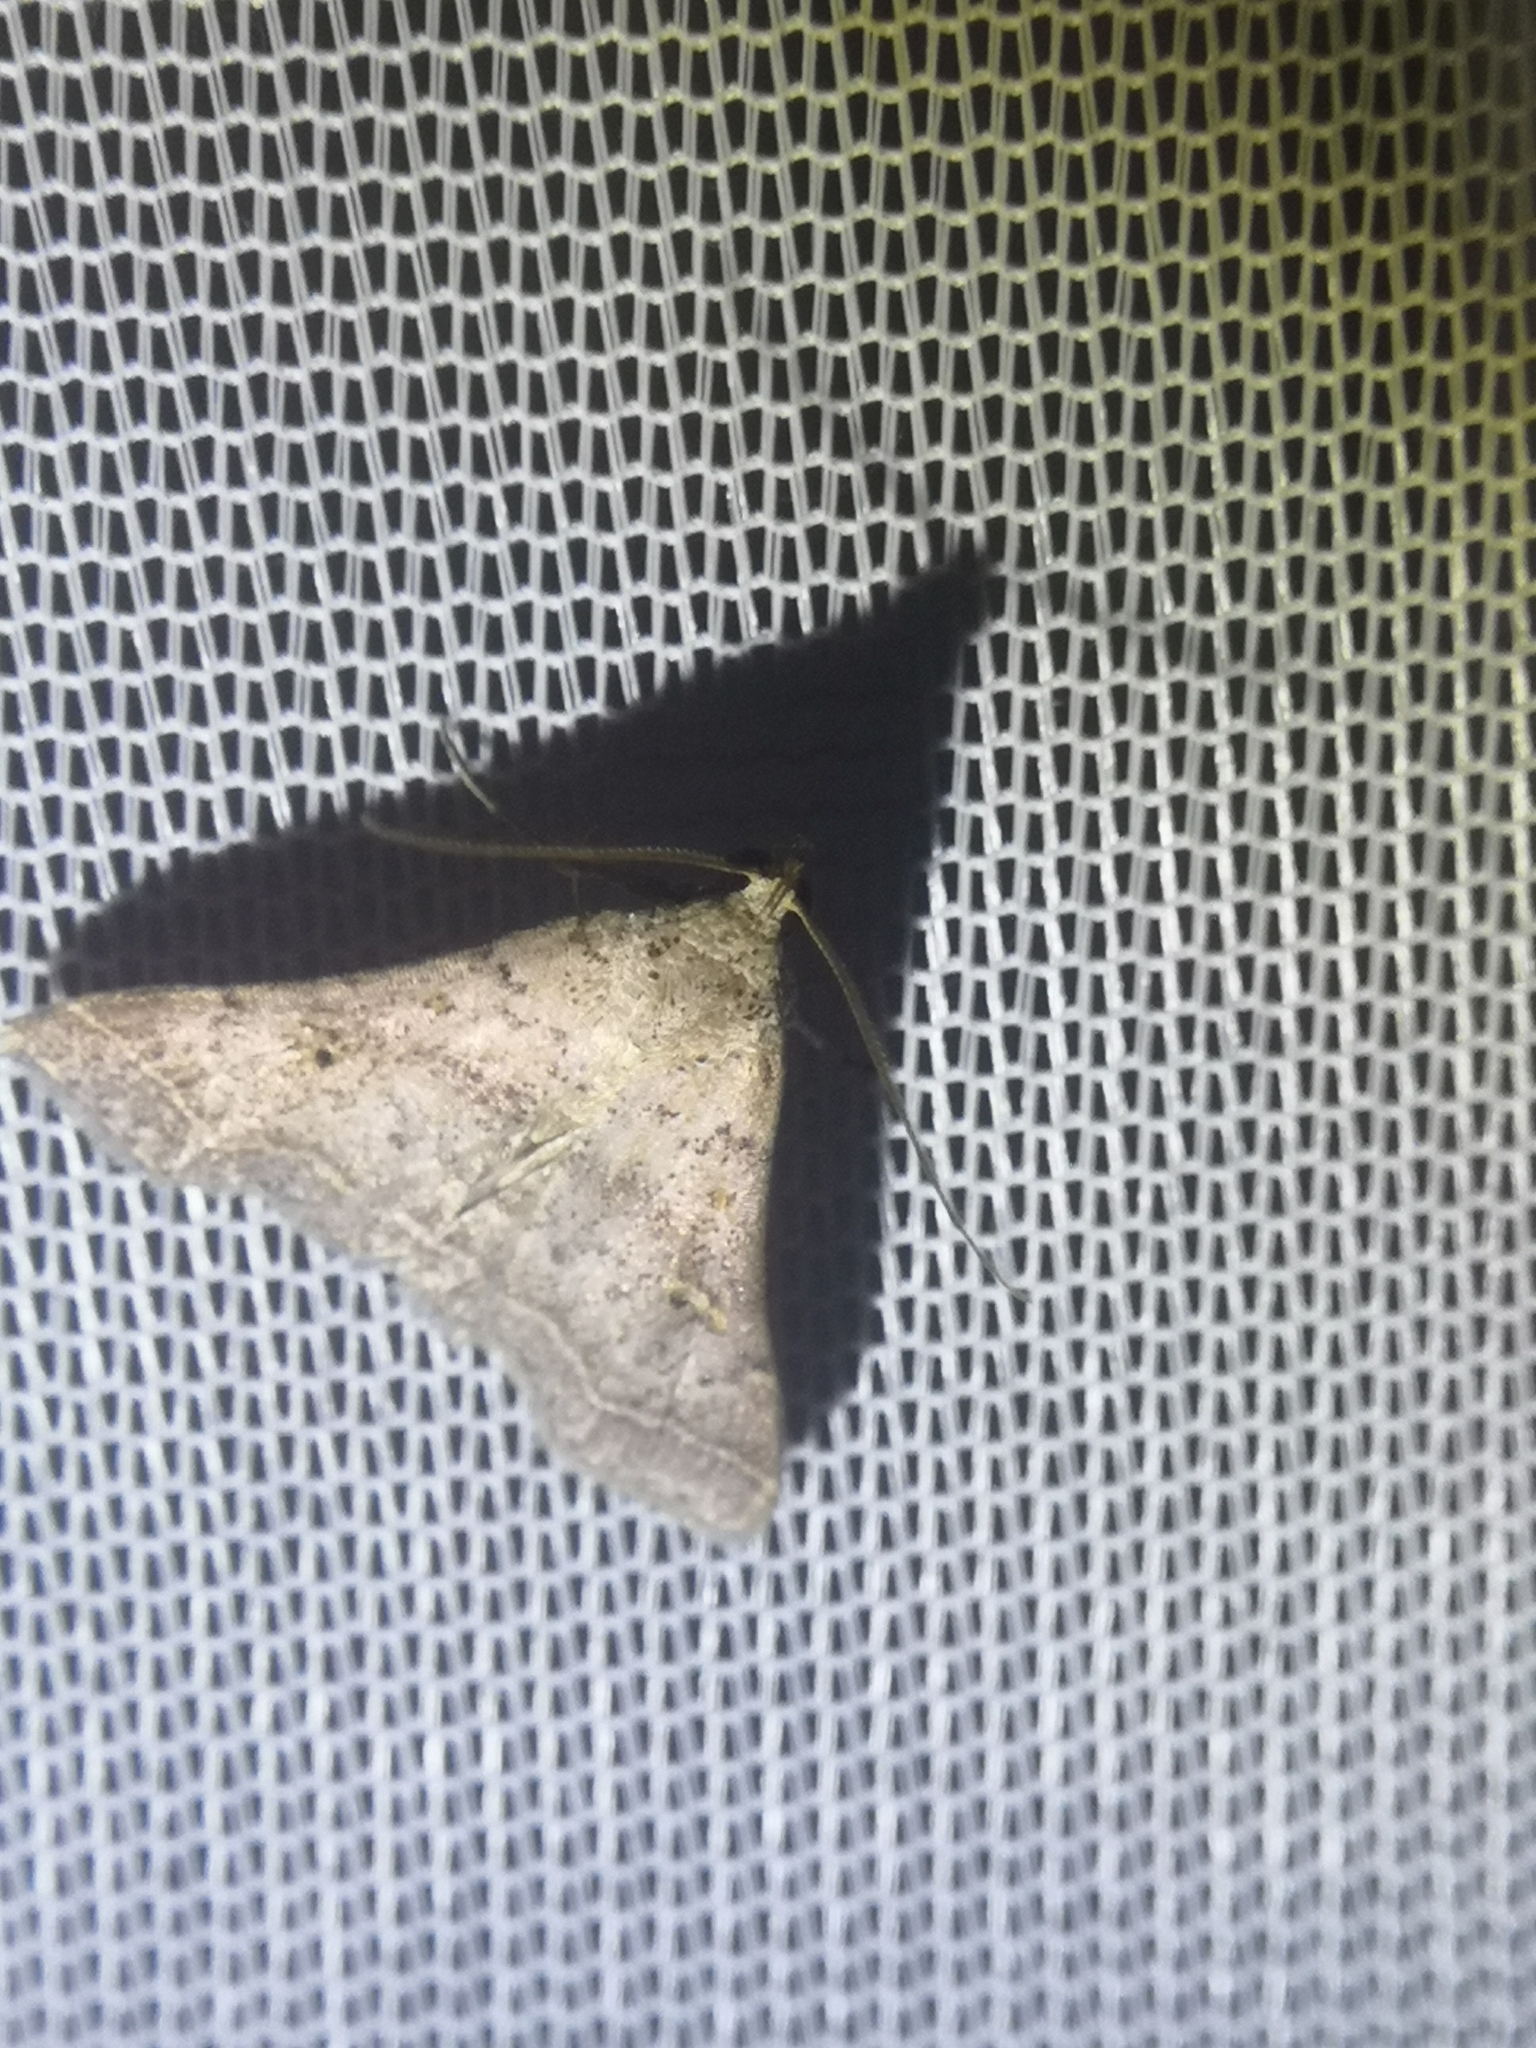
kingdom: Animalia
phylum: Arthropoda
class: Insecta
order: Lepidoptera
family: Erebidae
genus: Bleptina
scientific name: Bleptina caradrinalis
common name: Bent-winged owlet
